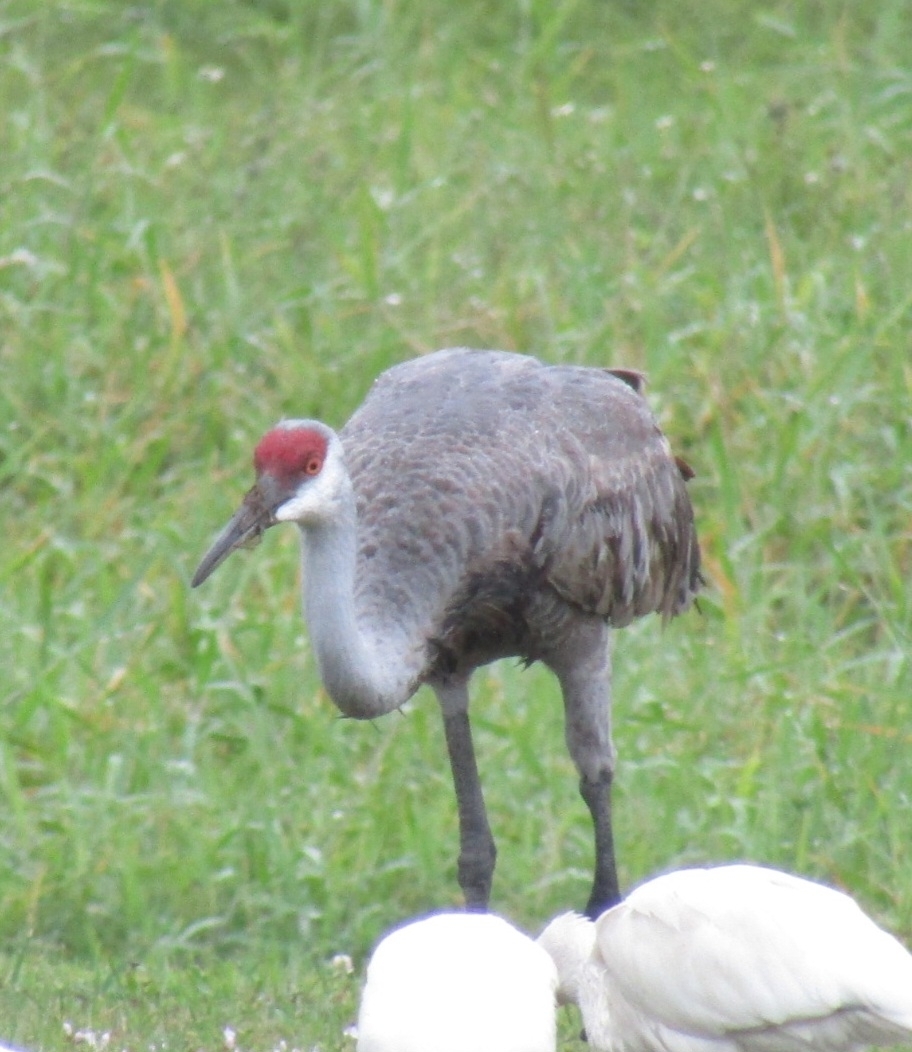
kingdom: Animalia
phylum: Chordata
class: Aves
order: Gruiformes
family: Gruidae
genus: Grus
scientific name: Grus canadensis
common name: Sandhill crane
